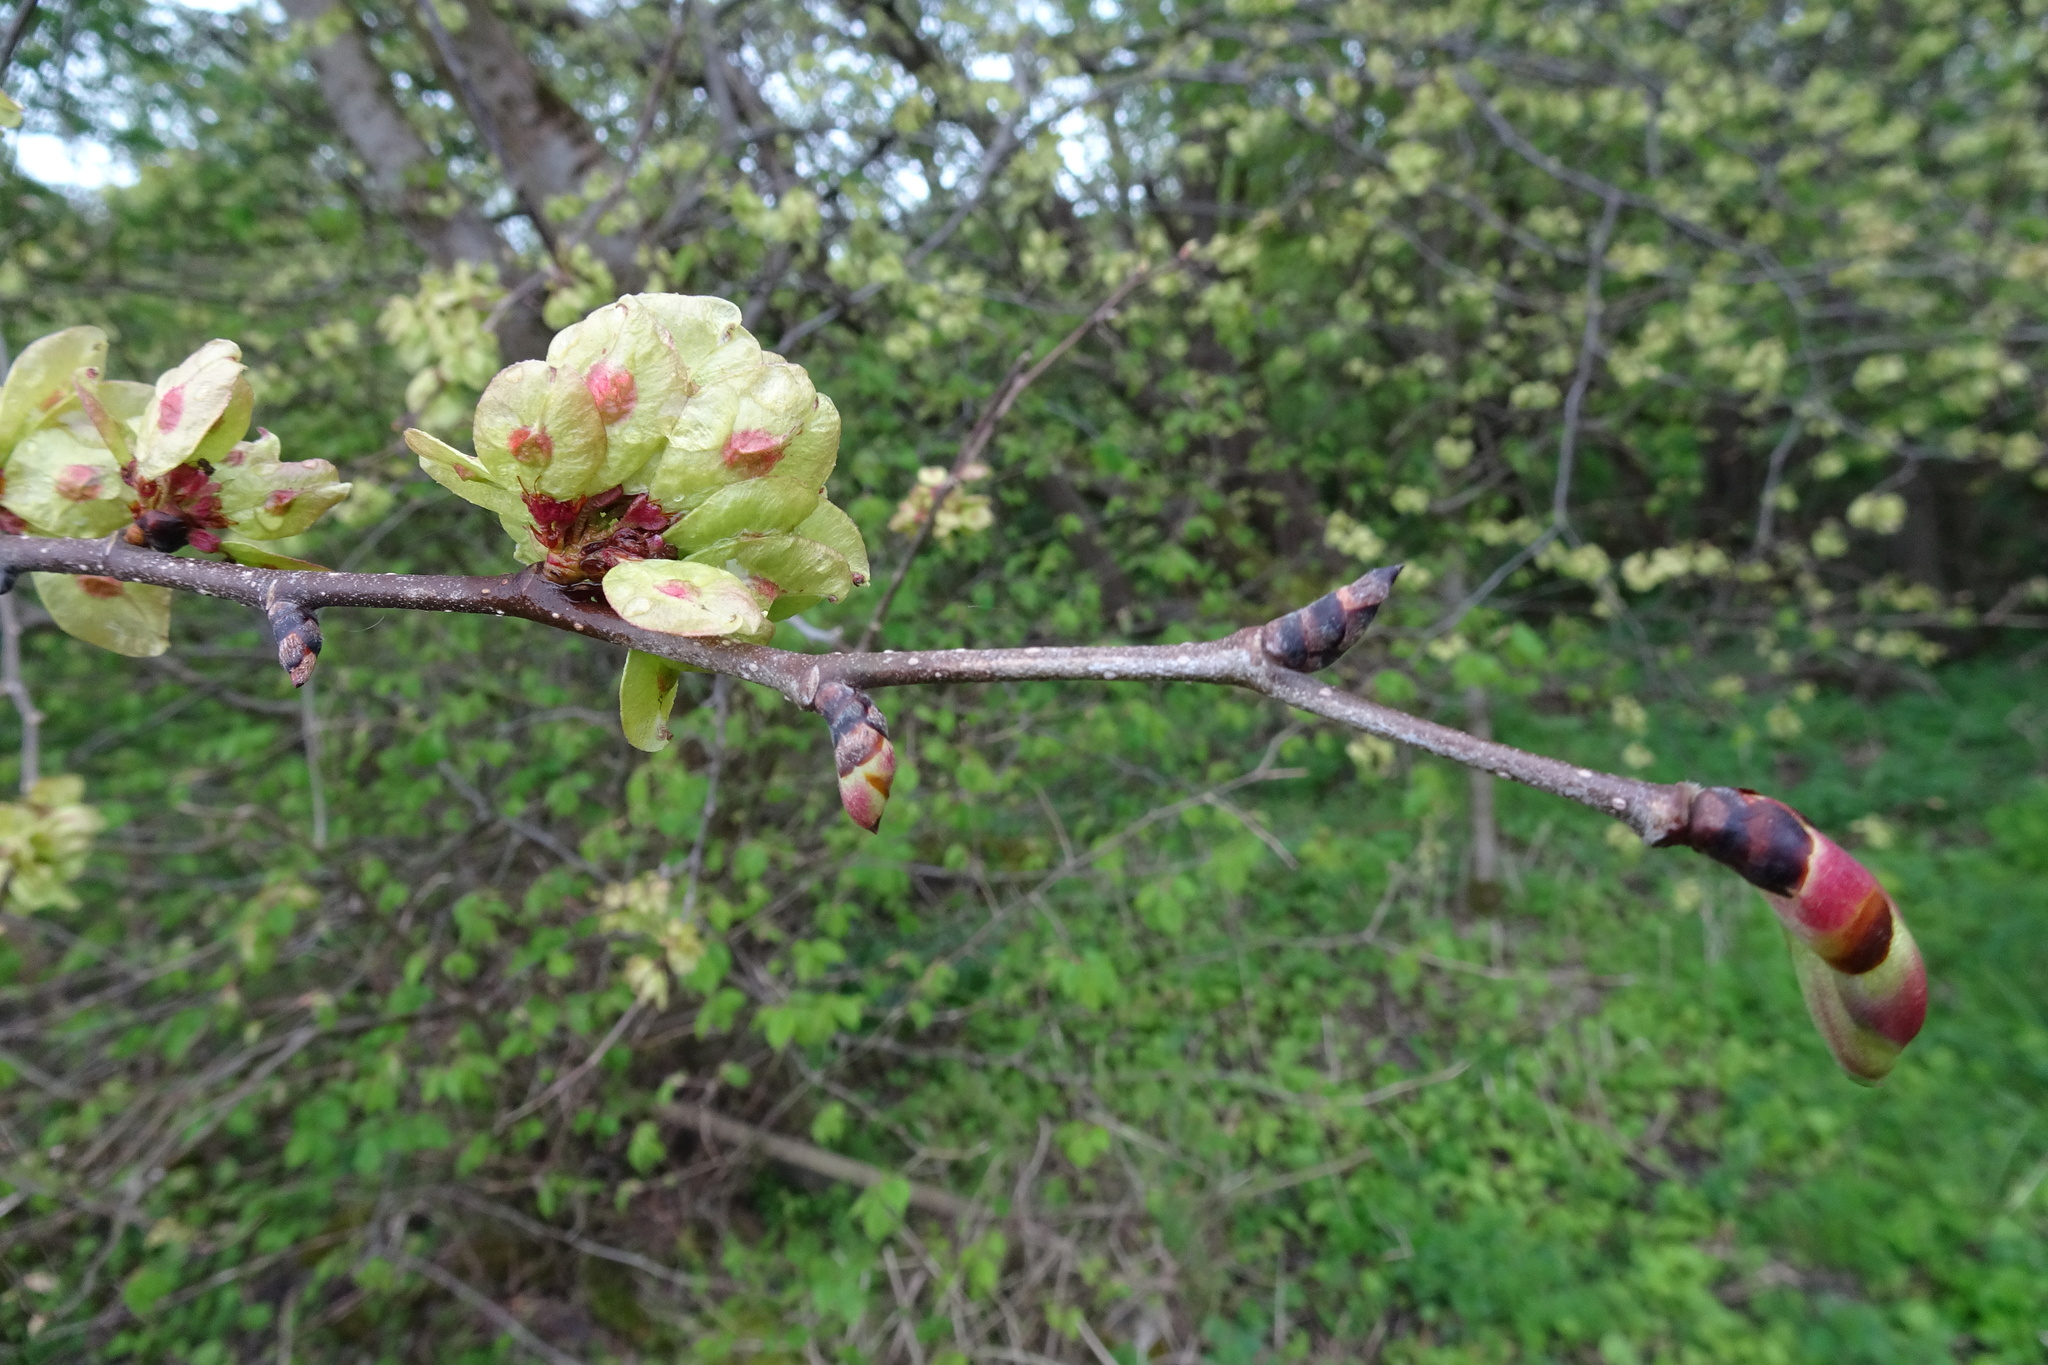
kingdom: Plantae
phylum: Tracheophyta
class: Magnoliopsida
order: Rosales
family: Ulmaceae
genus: Ulmus
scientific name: Ulmus glabra
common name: Wych elm
